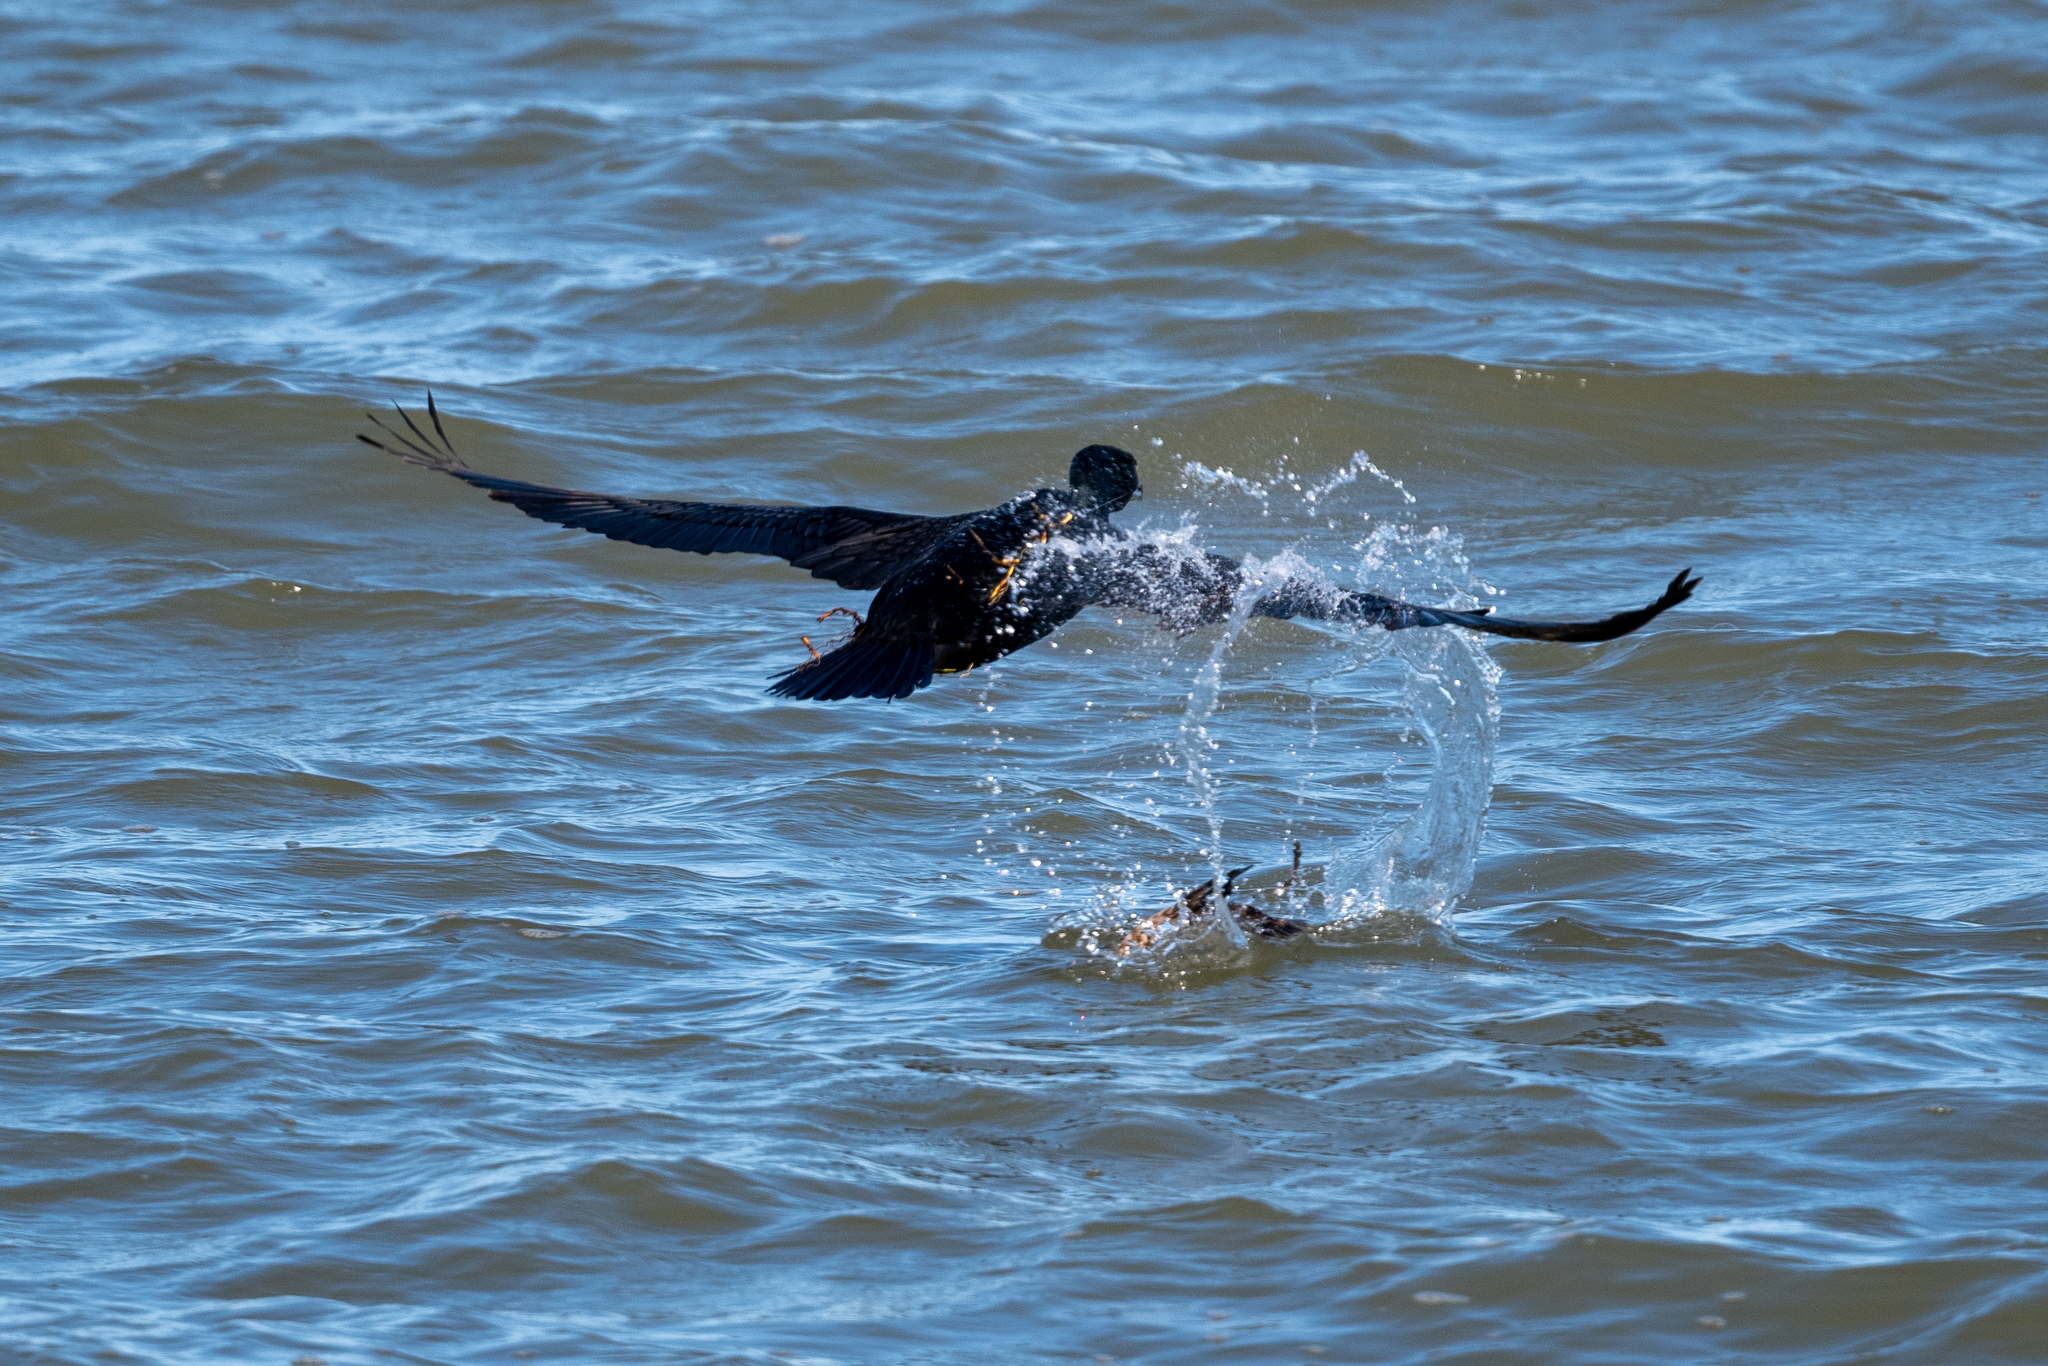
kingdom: Animalia
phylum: Chordata
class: Aves
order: Suliformes
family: Phalacrocoracidae
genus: Phalacrocorax
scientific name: Phalacrocorax auritus
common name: Double-crested cormorant
